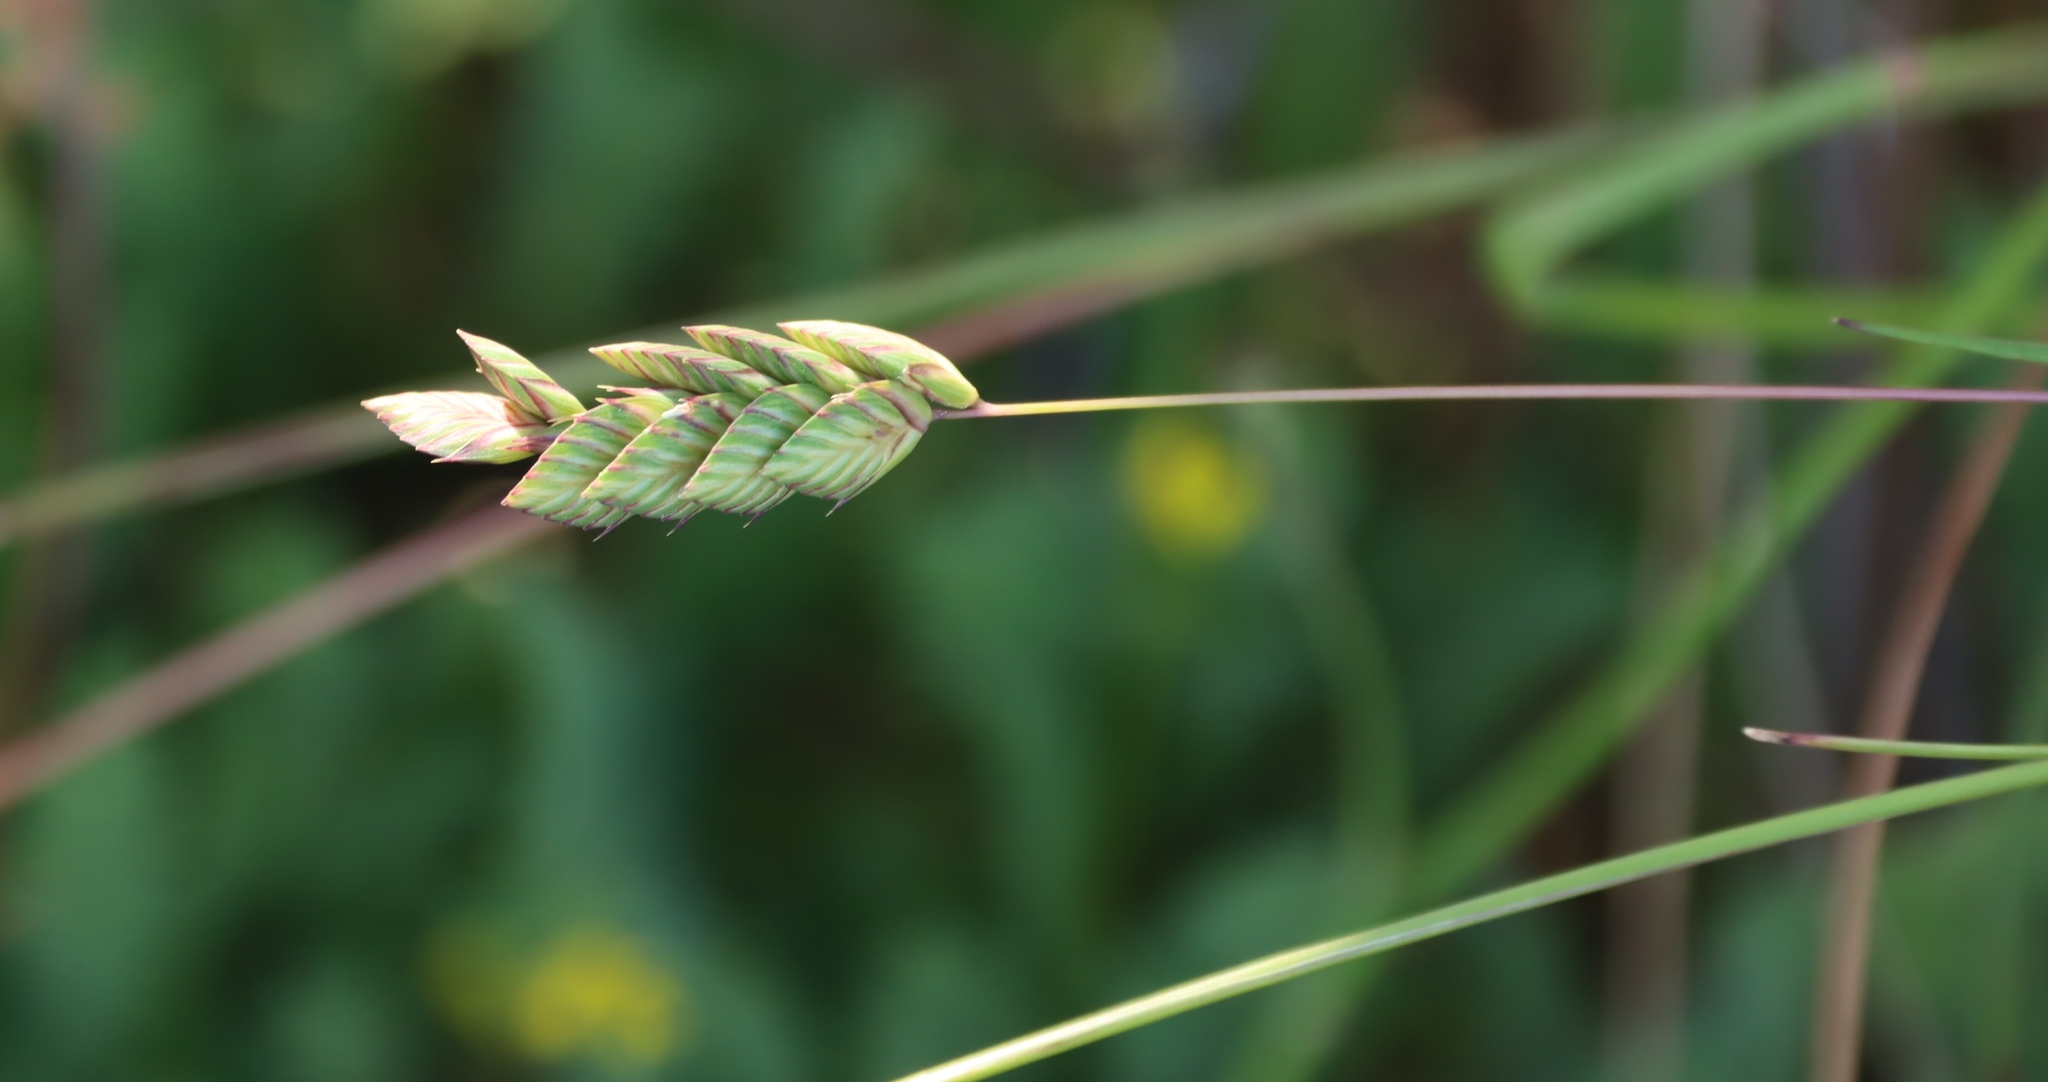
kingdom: Plantae
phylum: Tracheophyta
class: Liliopsida
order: Poales
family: Poaceae
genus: Tribolium
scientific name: Tribolium uniolae
